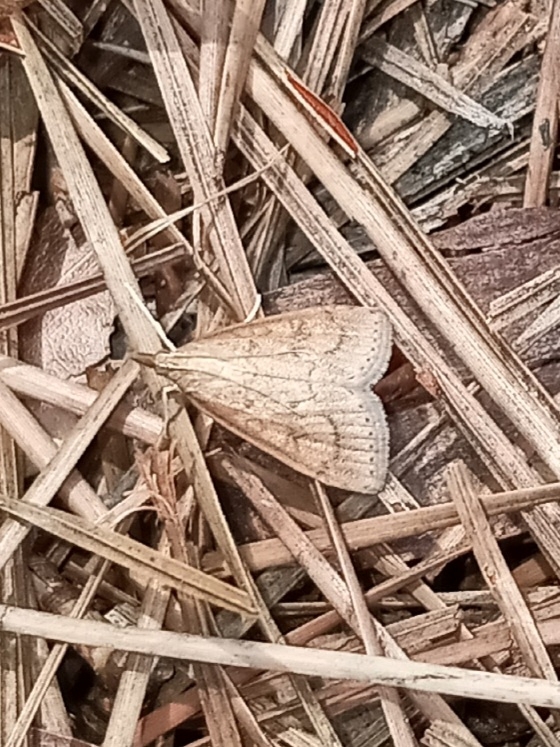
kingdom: Animalia
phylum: Arthropoda
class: Insecta
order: Lepidoptera
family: Crambidae
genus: Udea
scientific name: Udea rubigalis
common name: Celery leaftier moth
